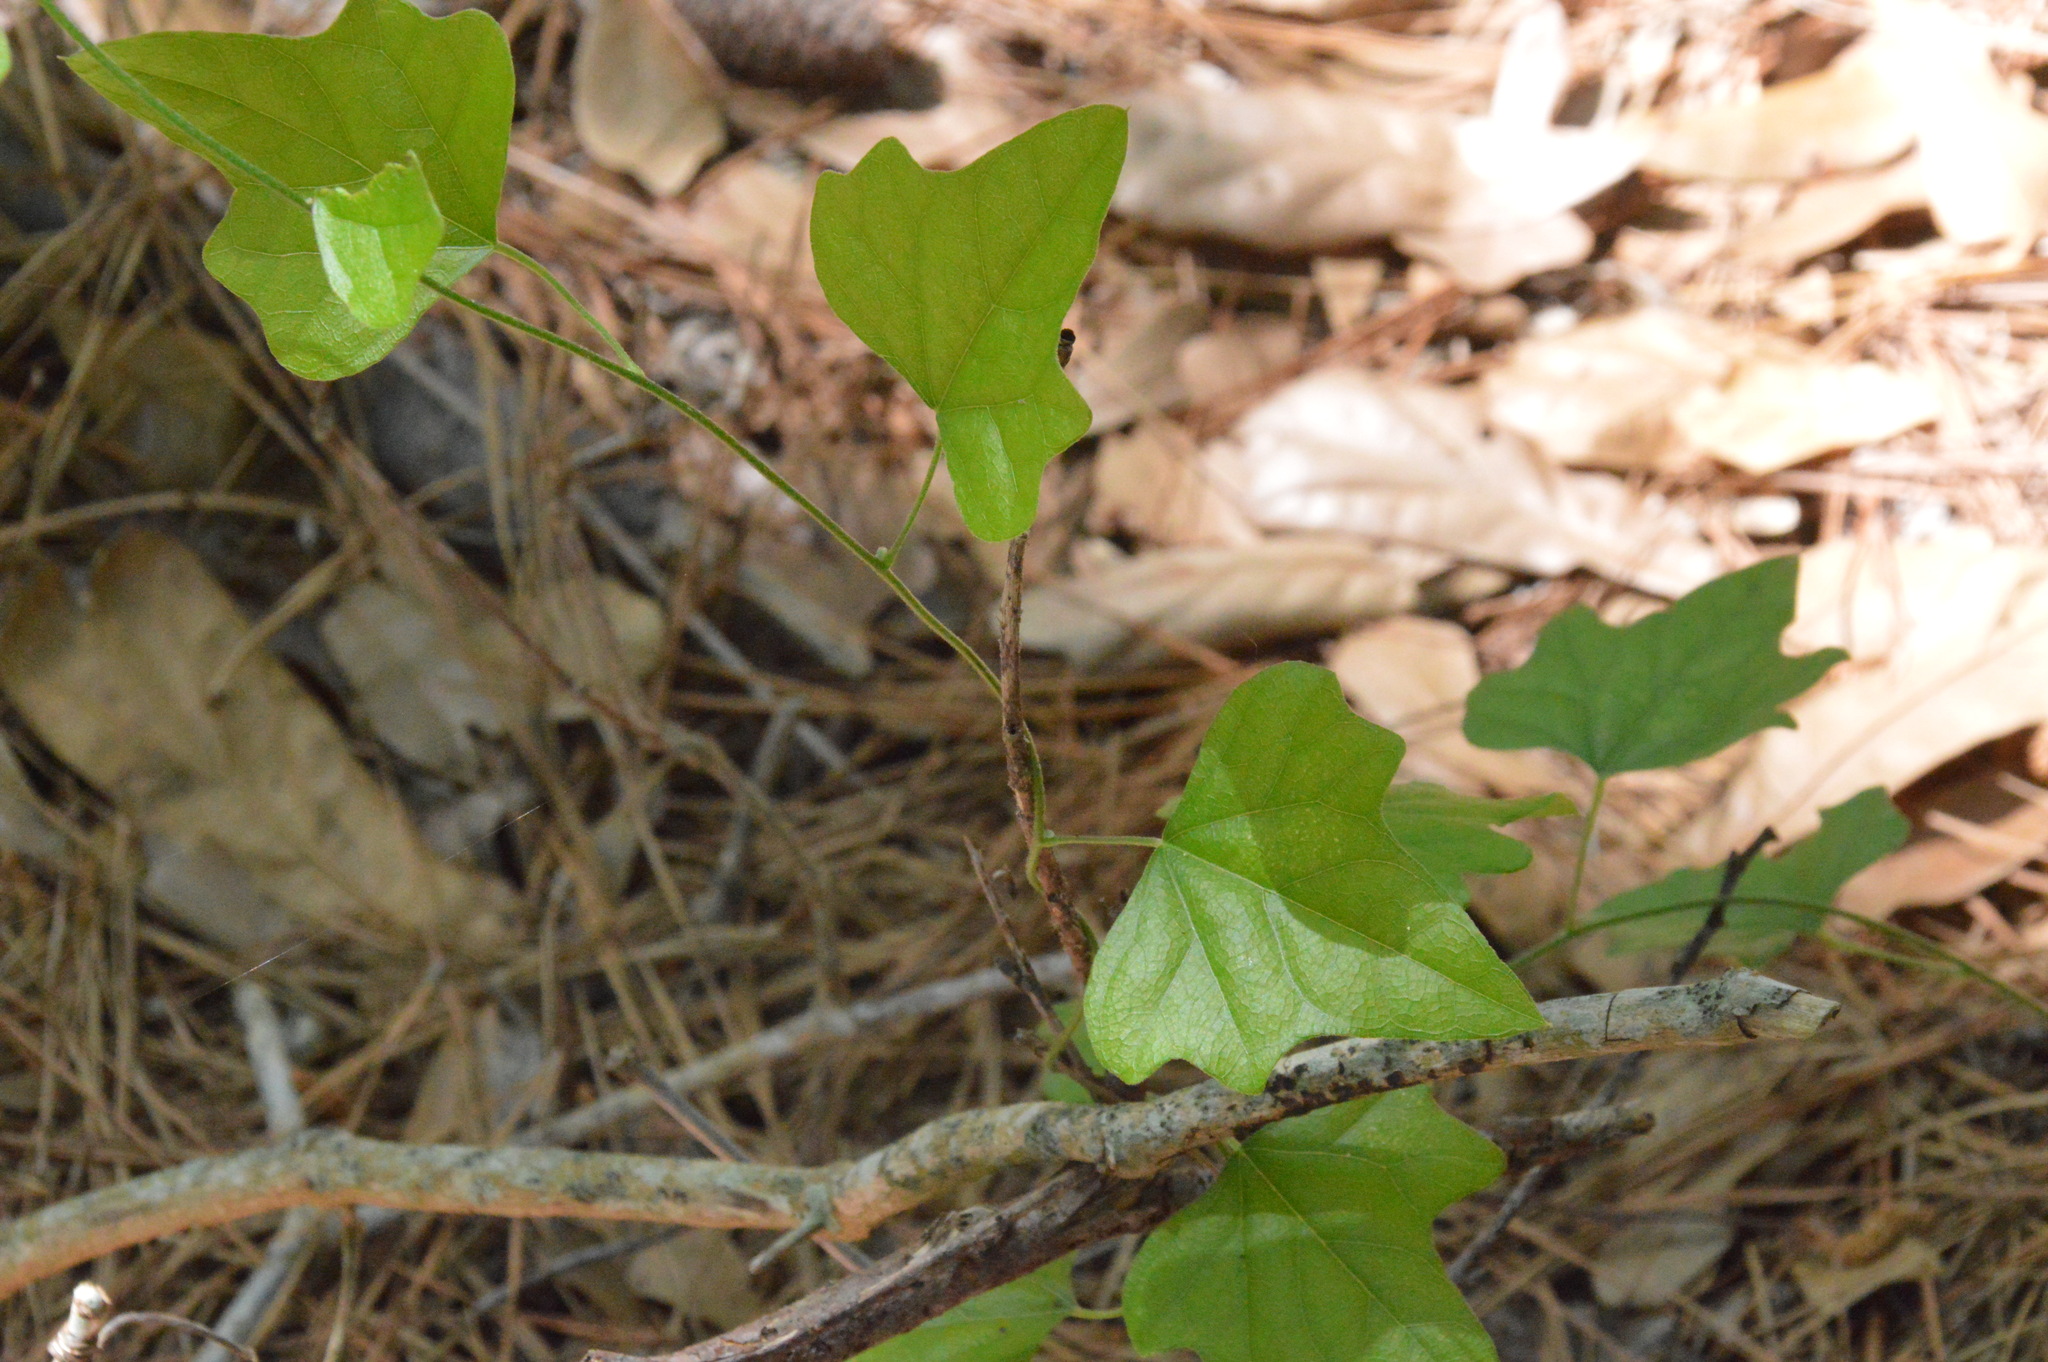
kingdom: Plantae
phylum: Tracheophyta
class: Magnoliopsida
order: Ranunculales
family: Menispermaceae
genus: Cocculus
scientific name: Cocculus carolinus
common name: Carolina moonseed
